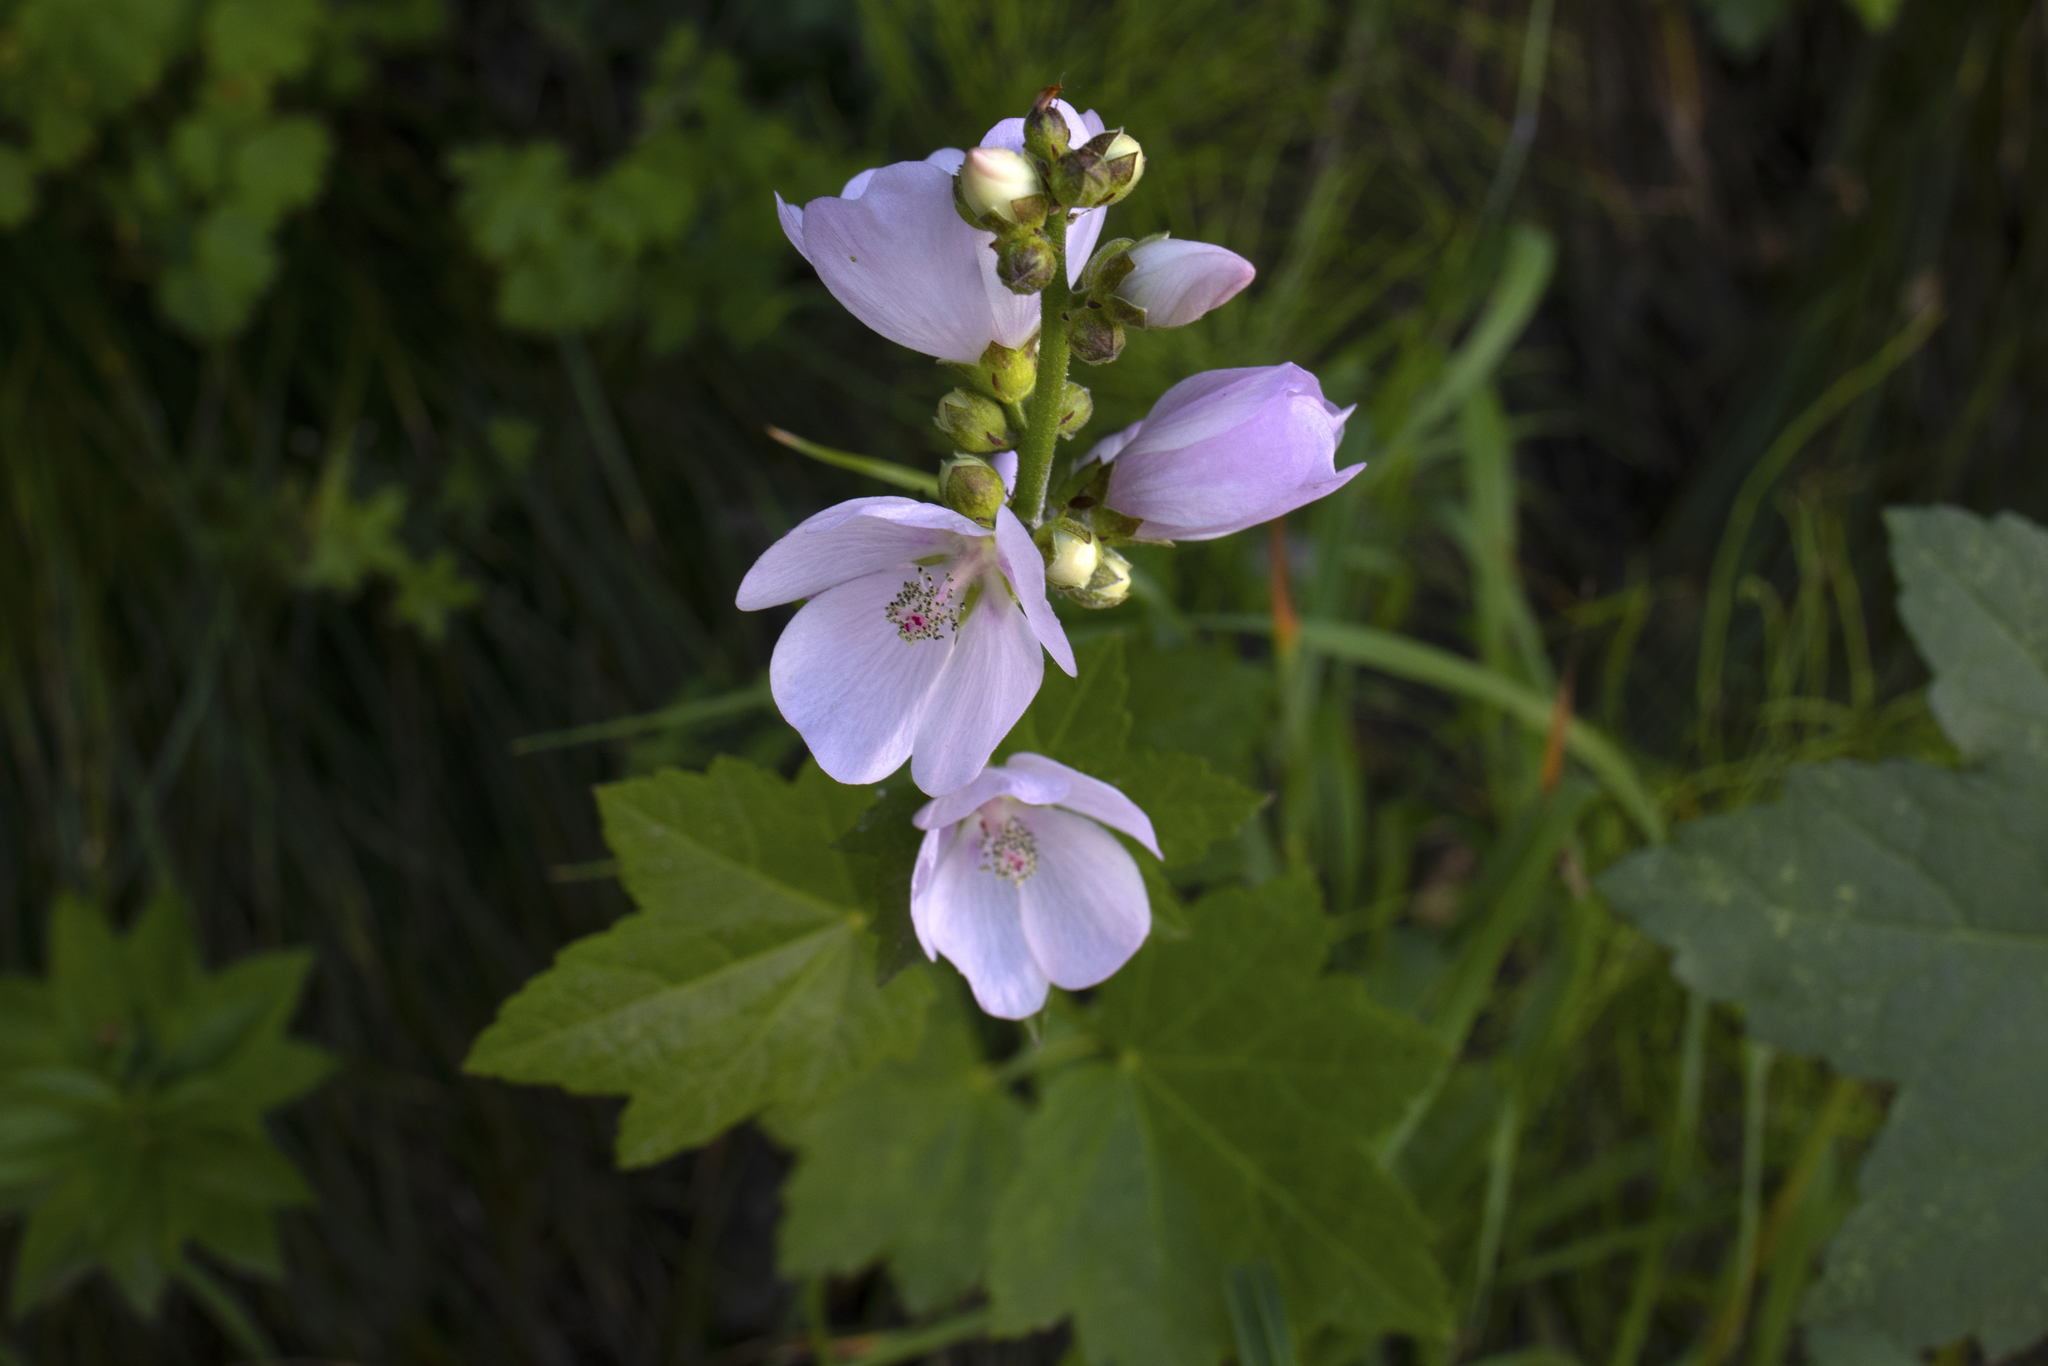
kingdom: Plantae
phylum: Tracheophyta
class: Magnoliopsida
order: Malvales
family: Malvaceae
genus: Iliamna
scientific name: Iliamna rivularis
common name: Wild hollyhock
